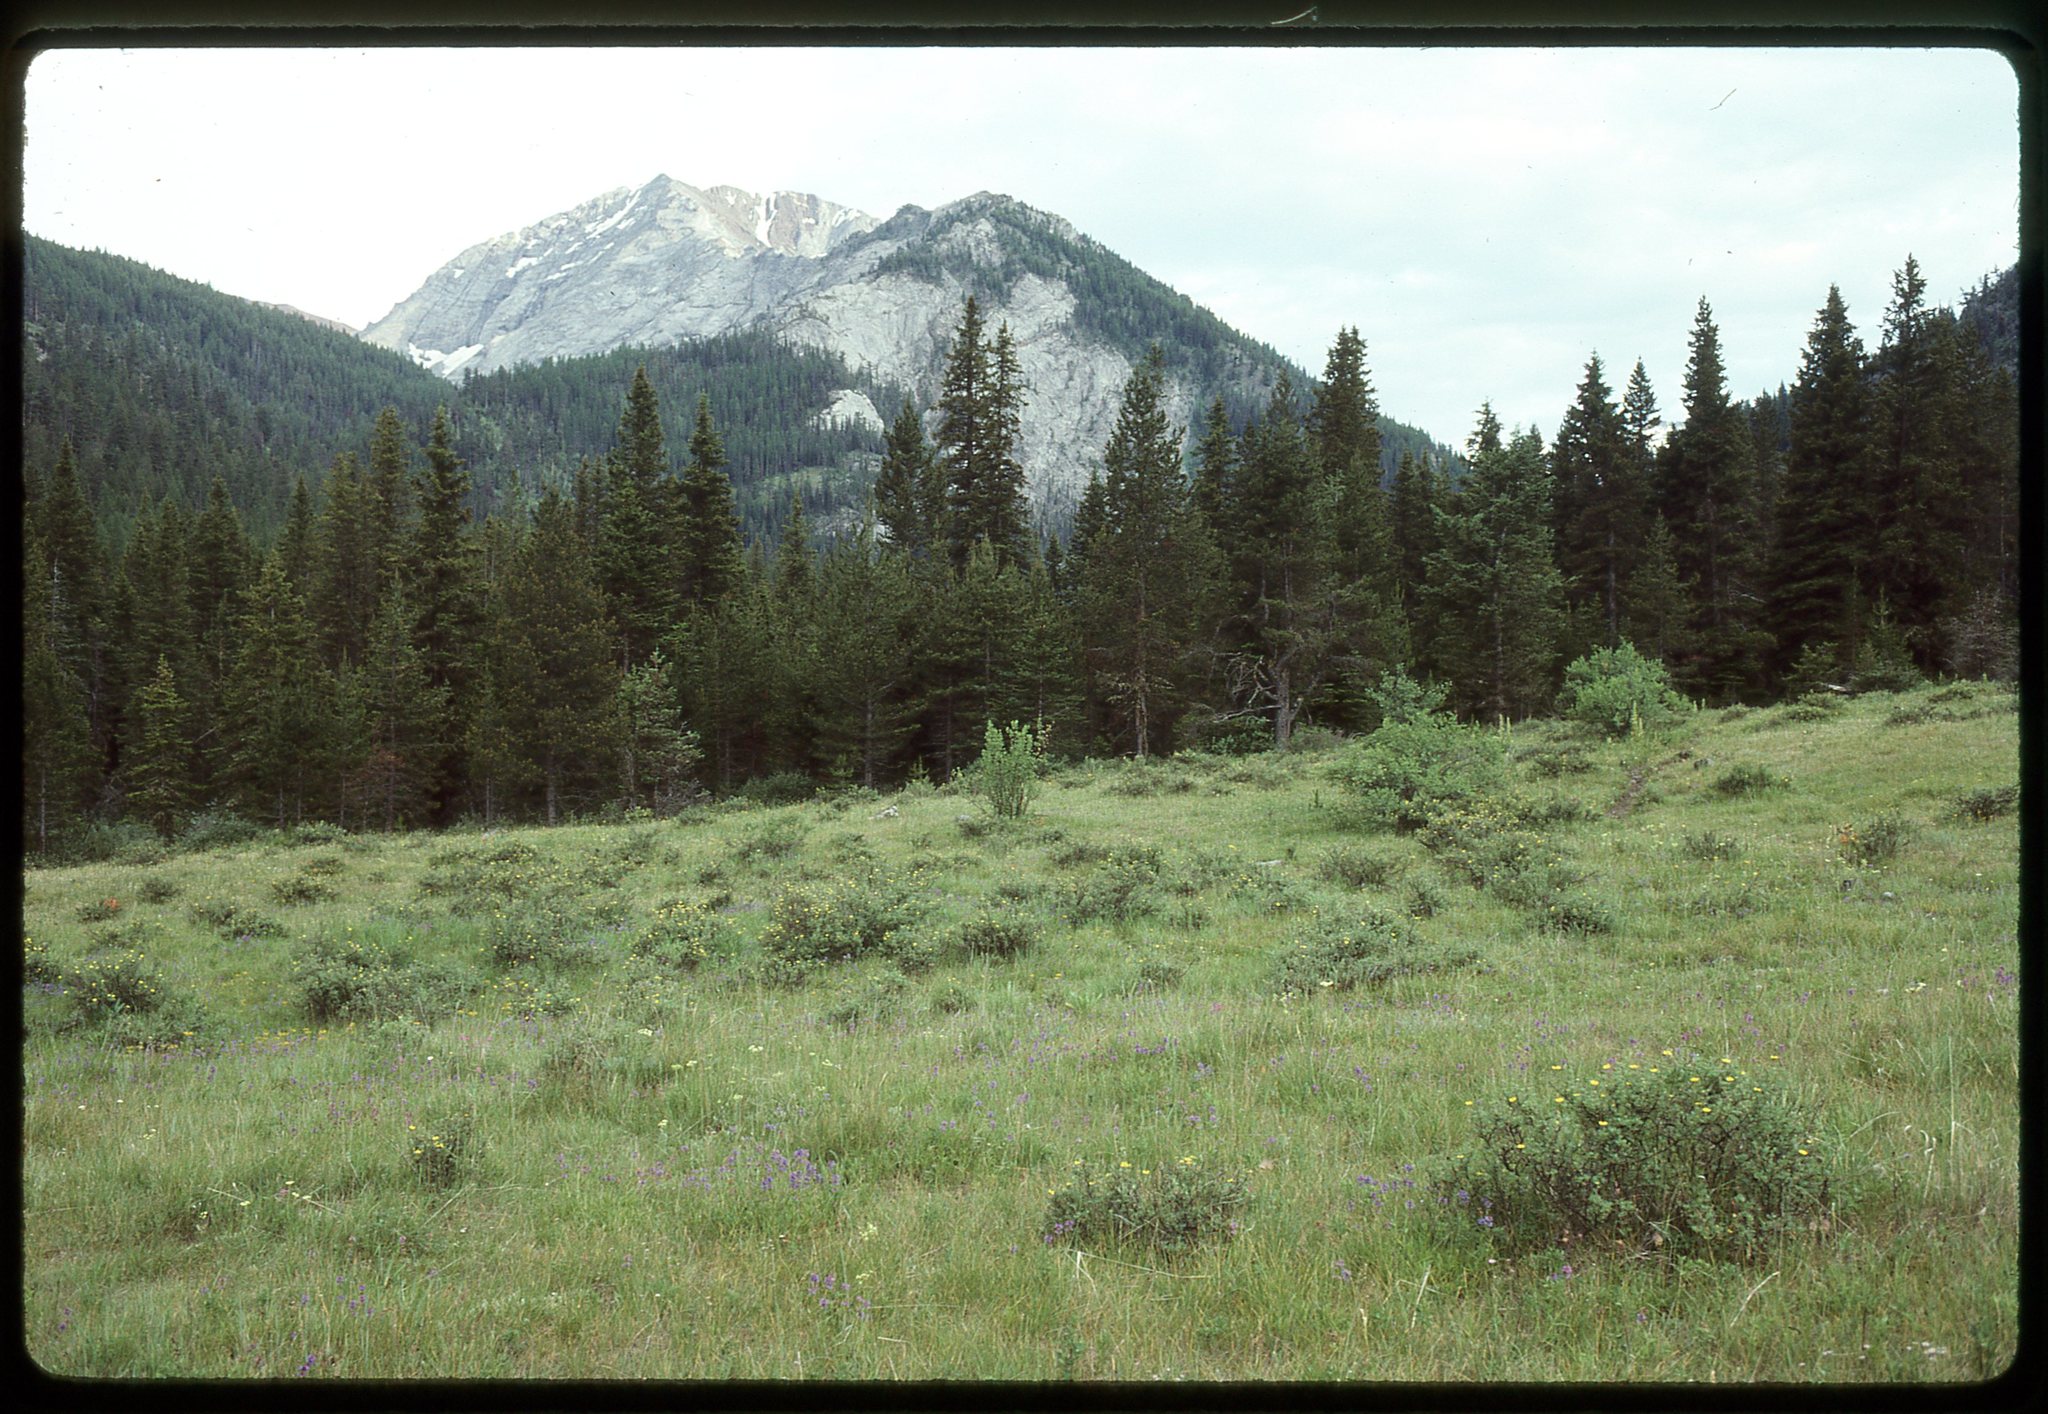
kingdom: Plantae
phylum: Tracheophyta
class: Polypodiopsida
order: Ophioglossales
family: Ophioglossaceae
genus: Botrychium
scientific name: Botrychium ascendens
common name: Ascending grapefern
